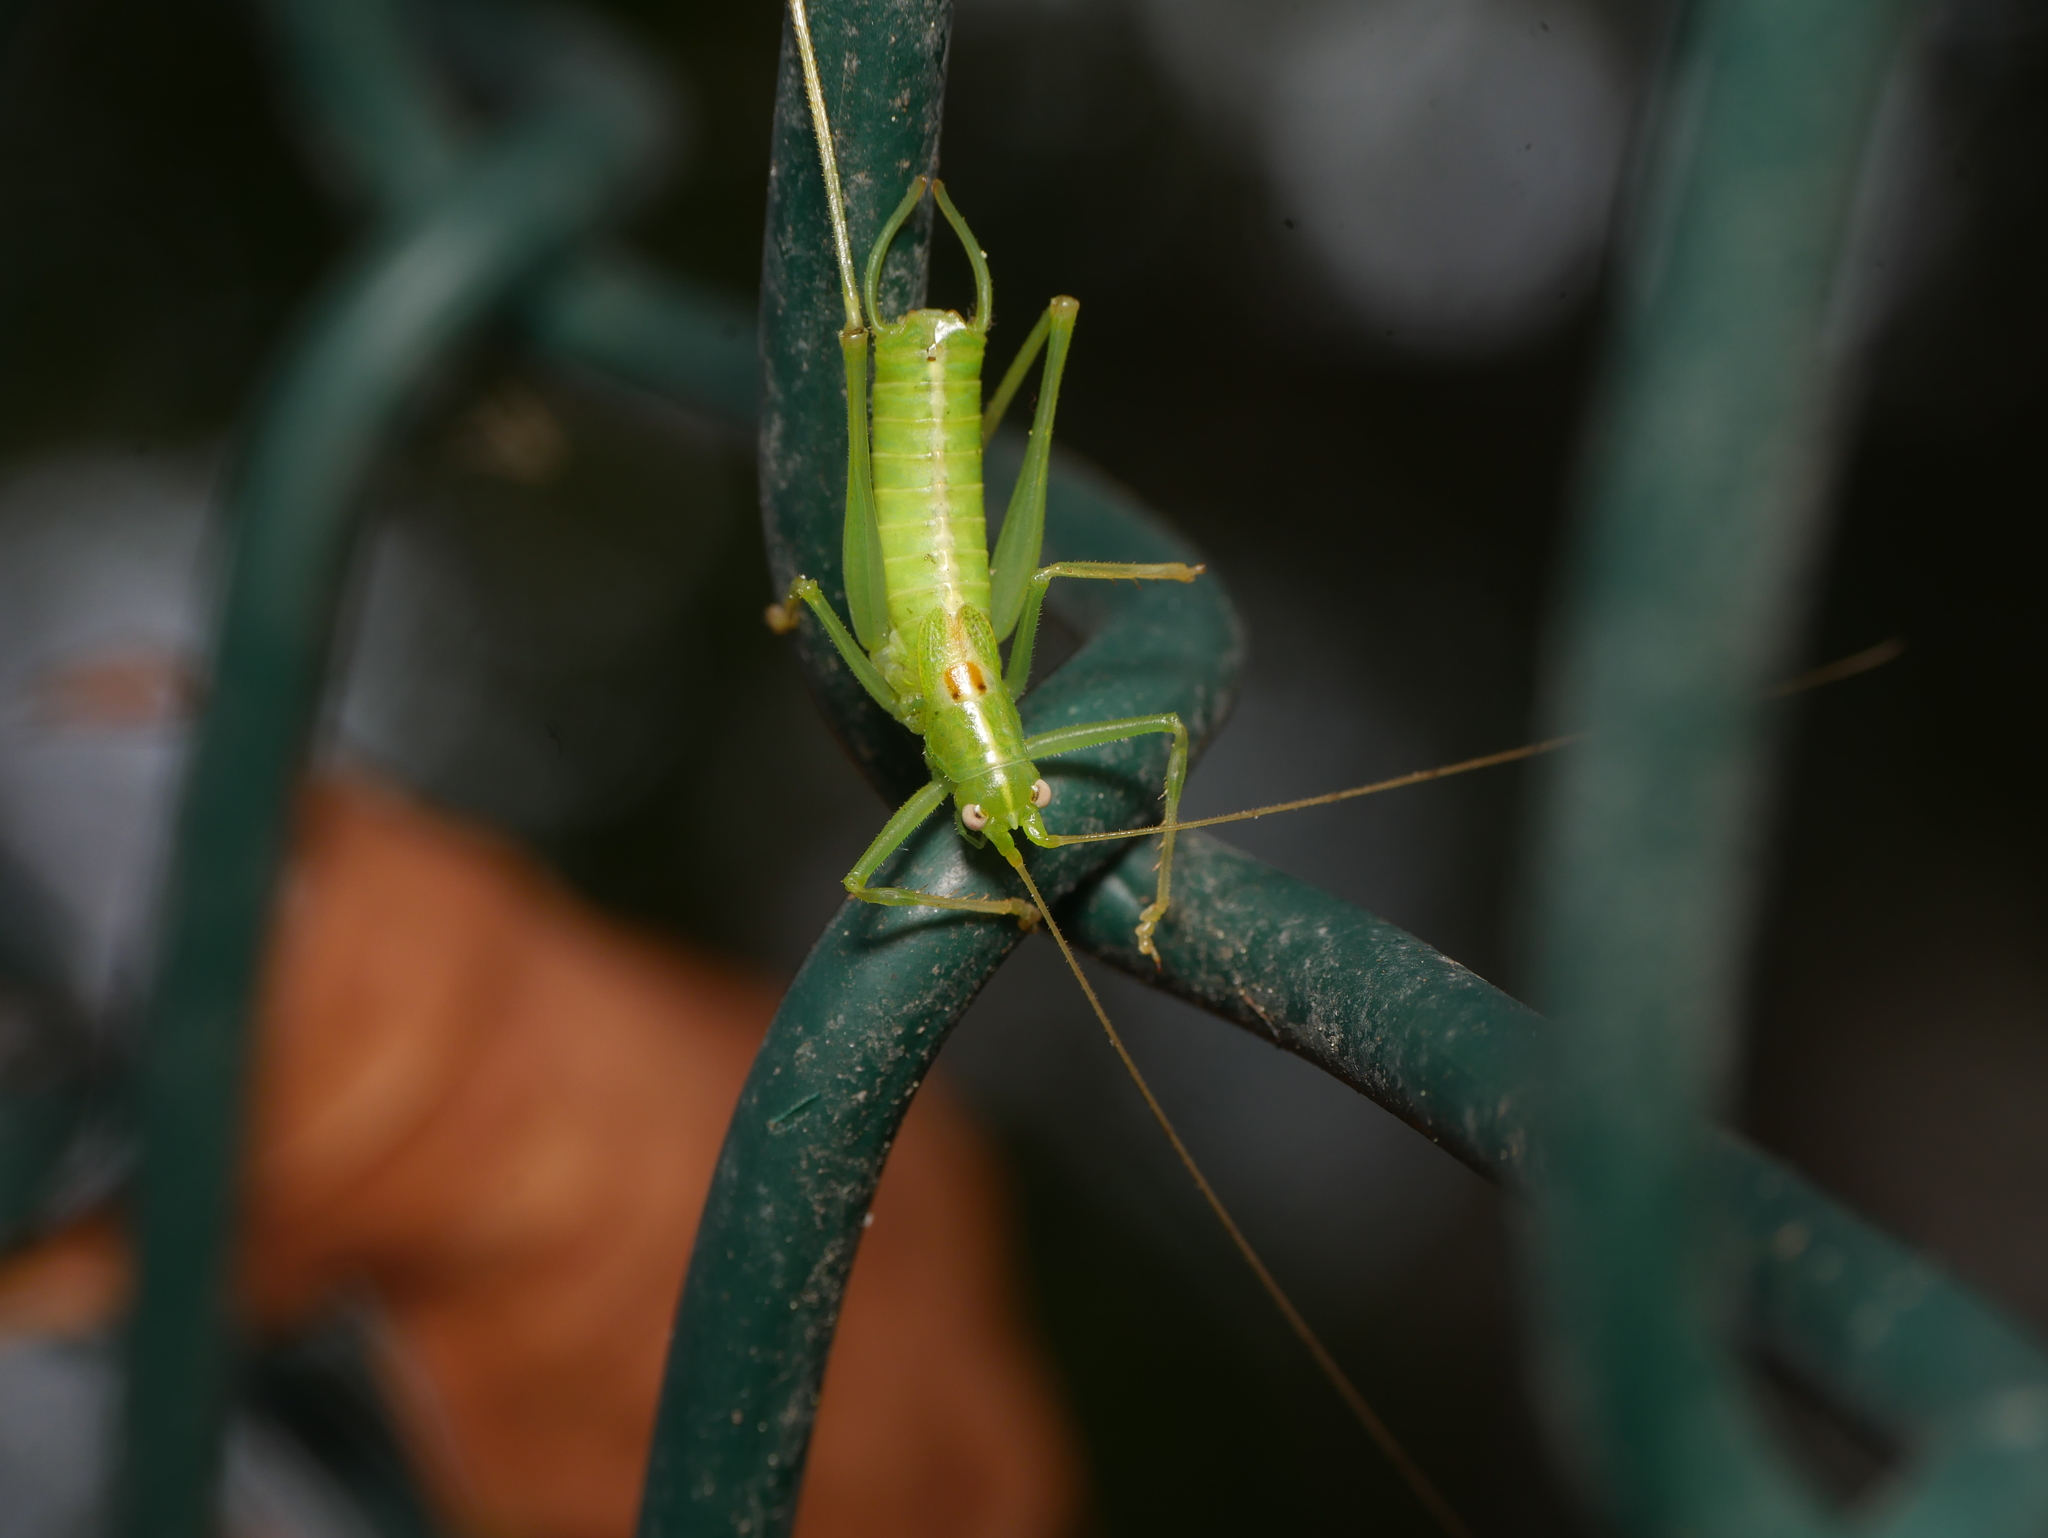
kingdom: Animalia
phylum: Arthropoda
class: Insecta
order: Orthoptera
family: Tettigoniidae
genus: Meconema
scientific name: Meconema meridionale
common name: Southern oak bush-cricket
